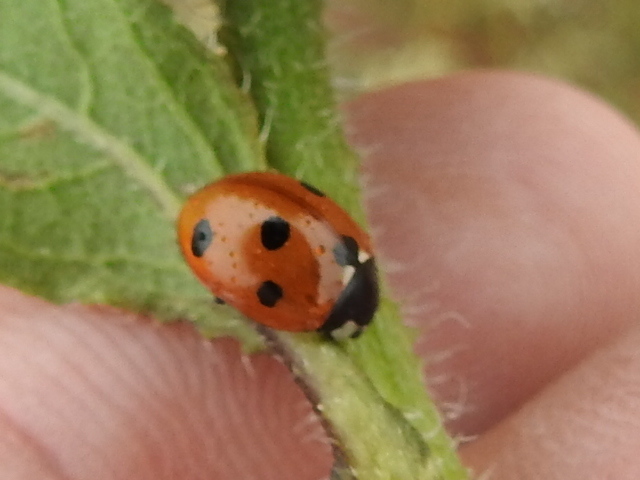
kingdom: Animalia
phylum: Arthropoda
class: Insecta
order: Coleoptera
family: Coccinellidae
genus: Coccinella
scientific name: Coccinella septempunctata
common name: Sevenspotted lady beetle
